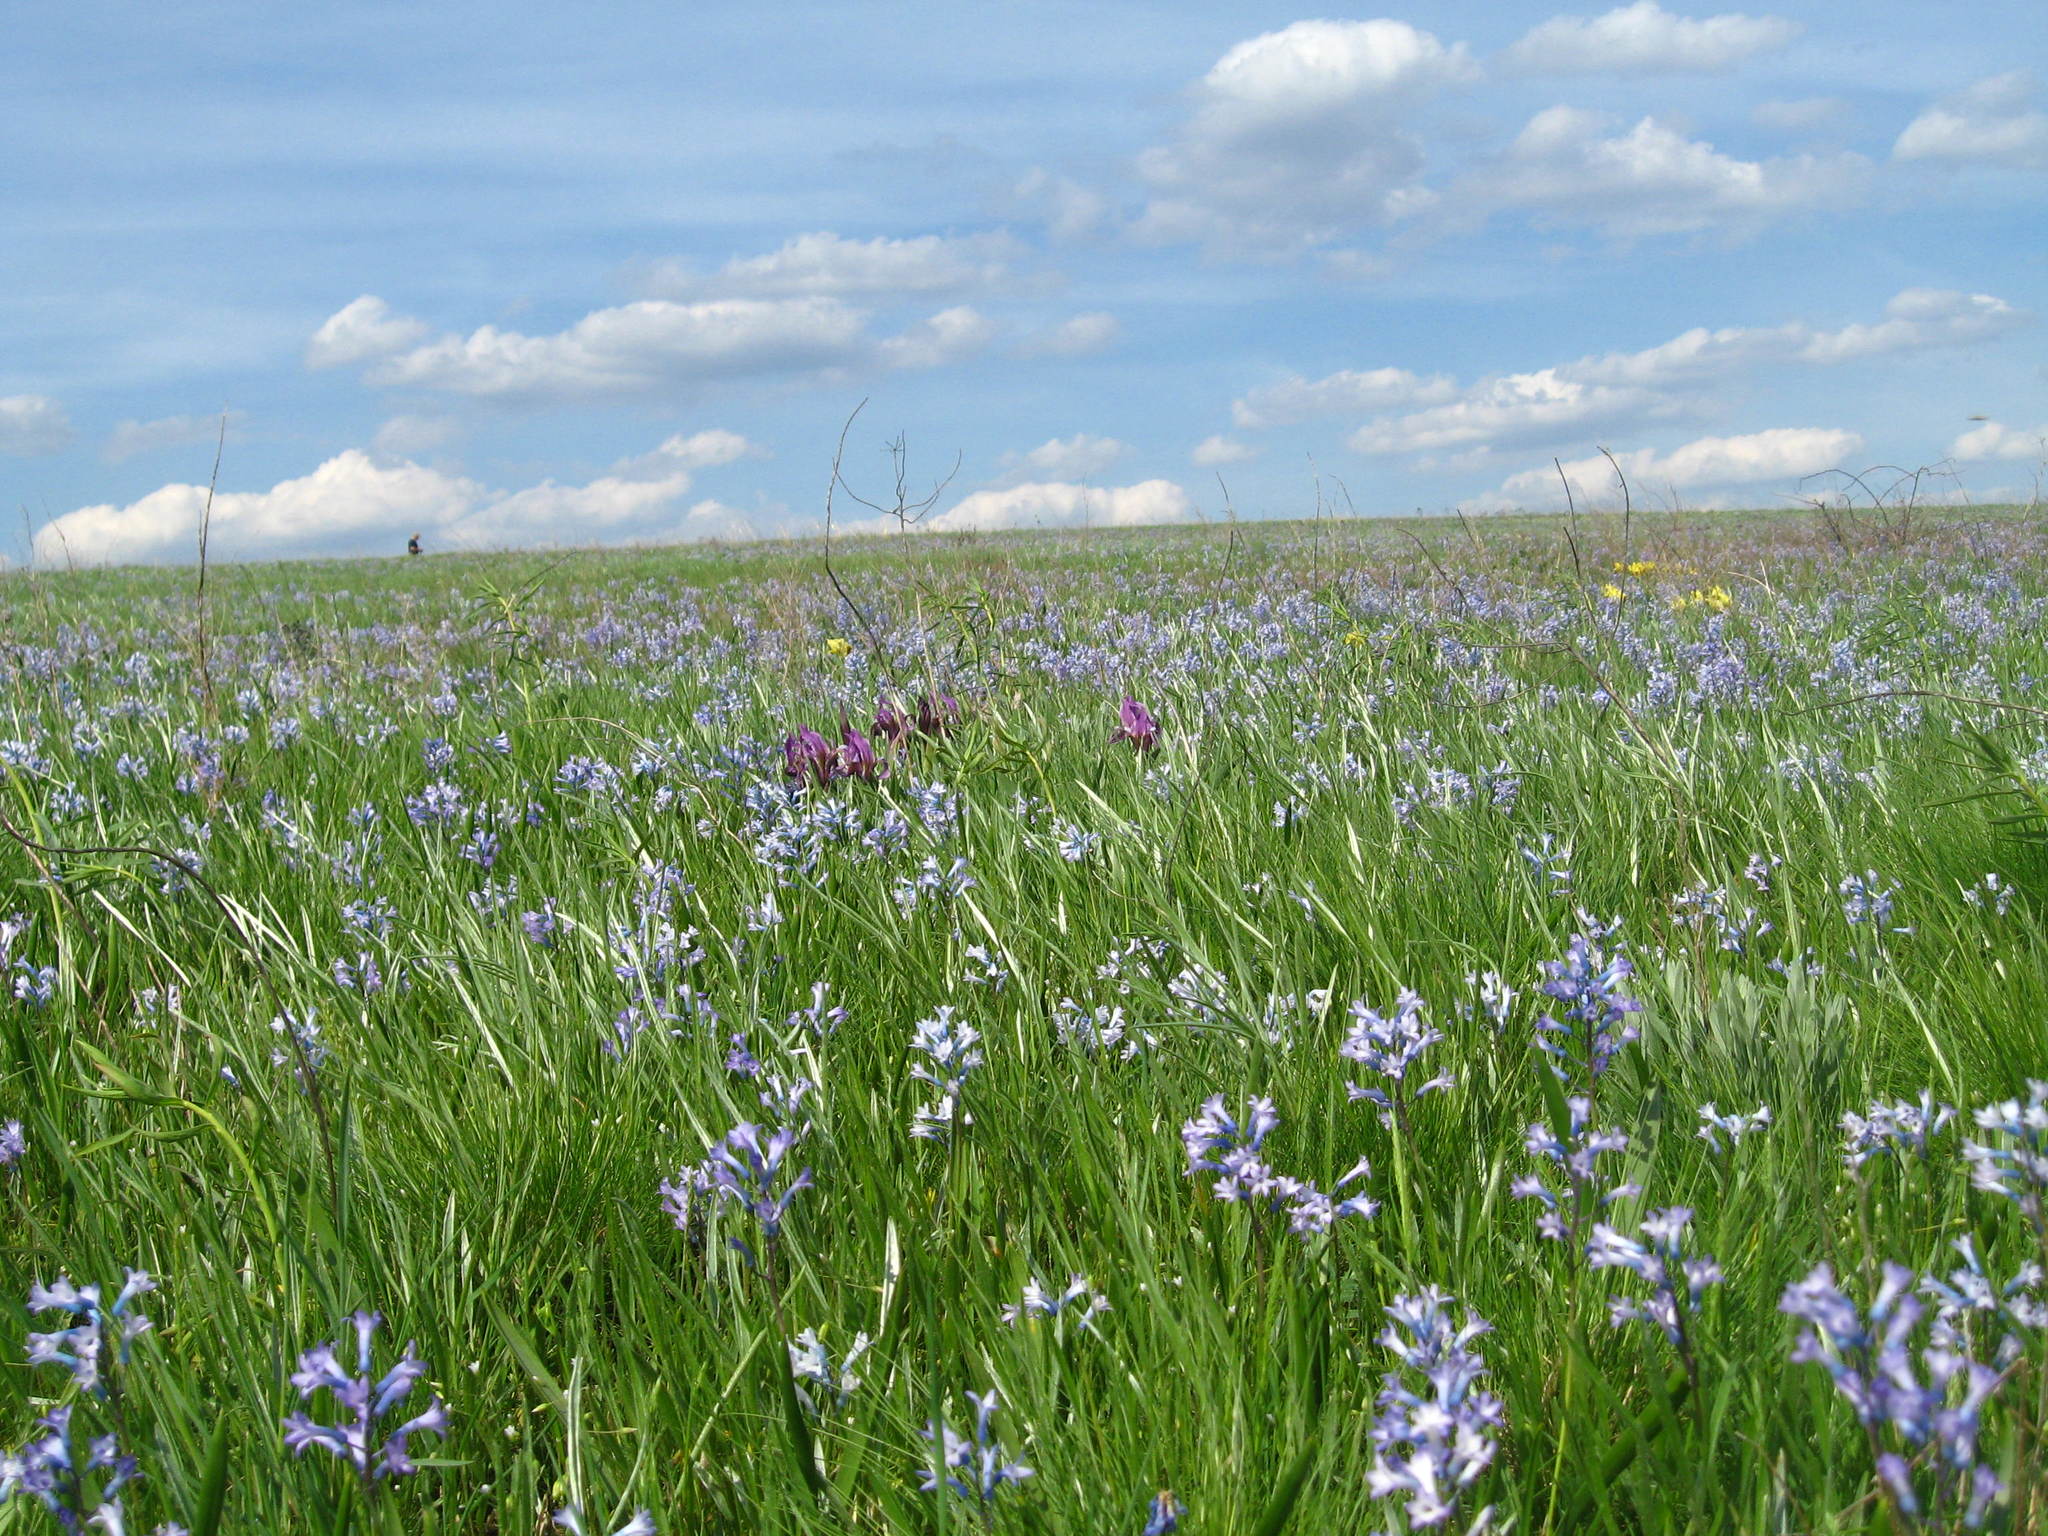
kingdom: Plantae
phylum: Tracheophyta
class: Liliopsida
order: Asparagales
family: Asparagaceae
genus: Hyacinthella
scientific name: Hyacinthella pallasiana
